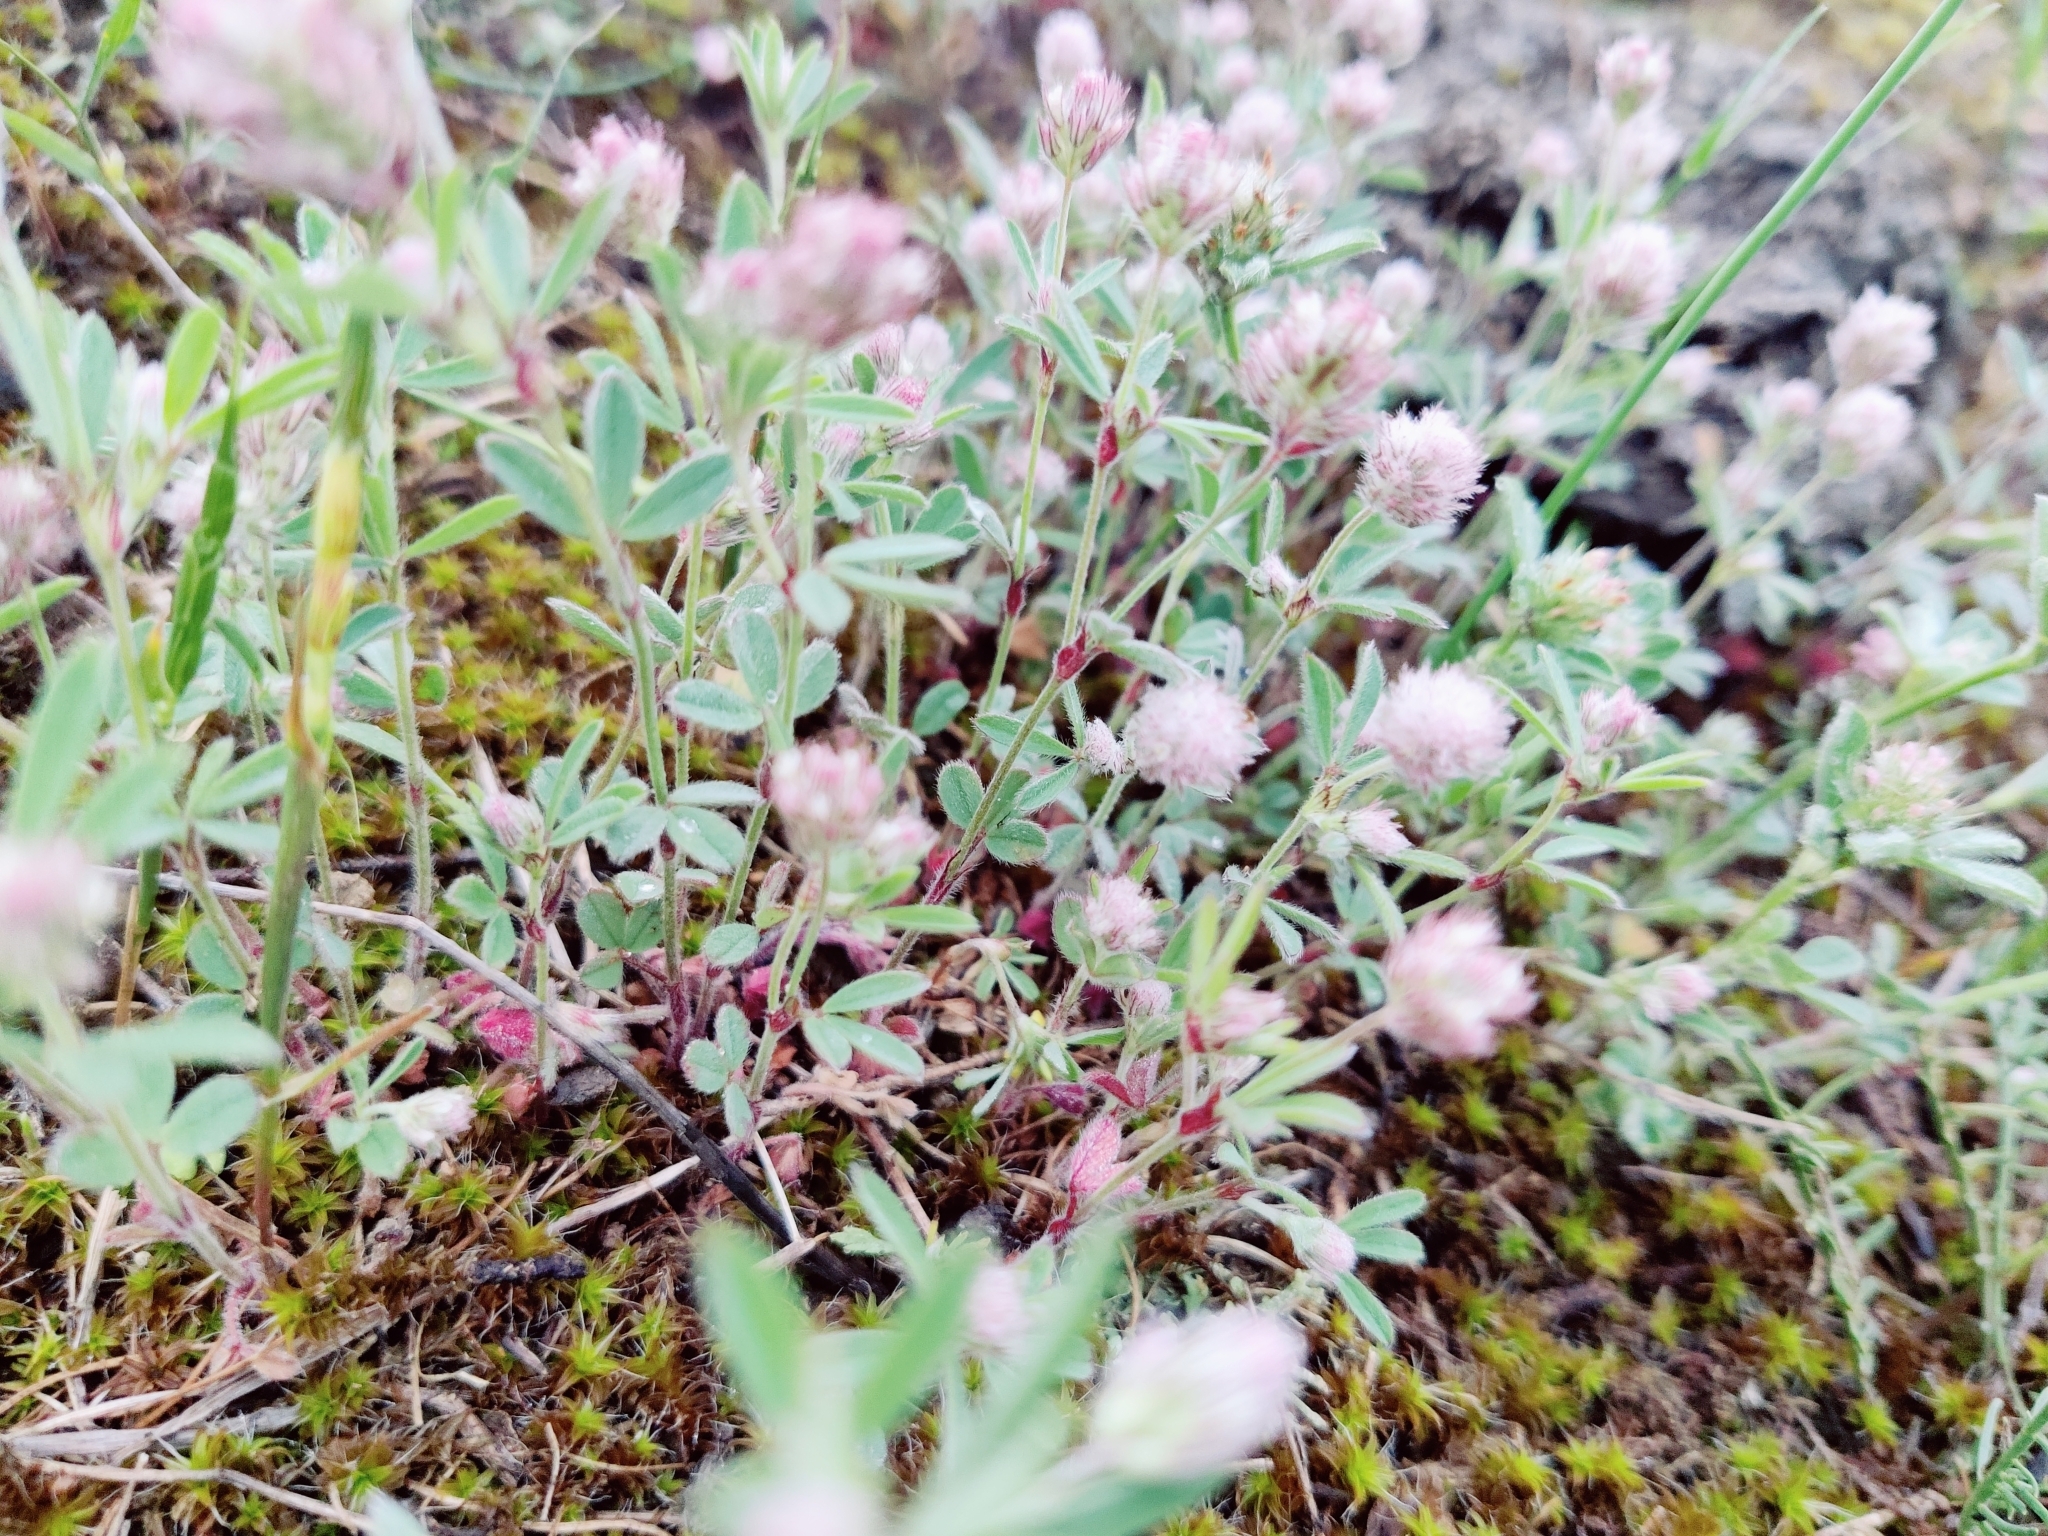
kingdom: Plantae
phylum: Tracheophyta
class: Magnoliopsida
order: Fabales
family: Fabaceae
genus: Trifolium
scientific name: Trifolium arvense
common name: Hare's-foot clover
